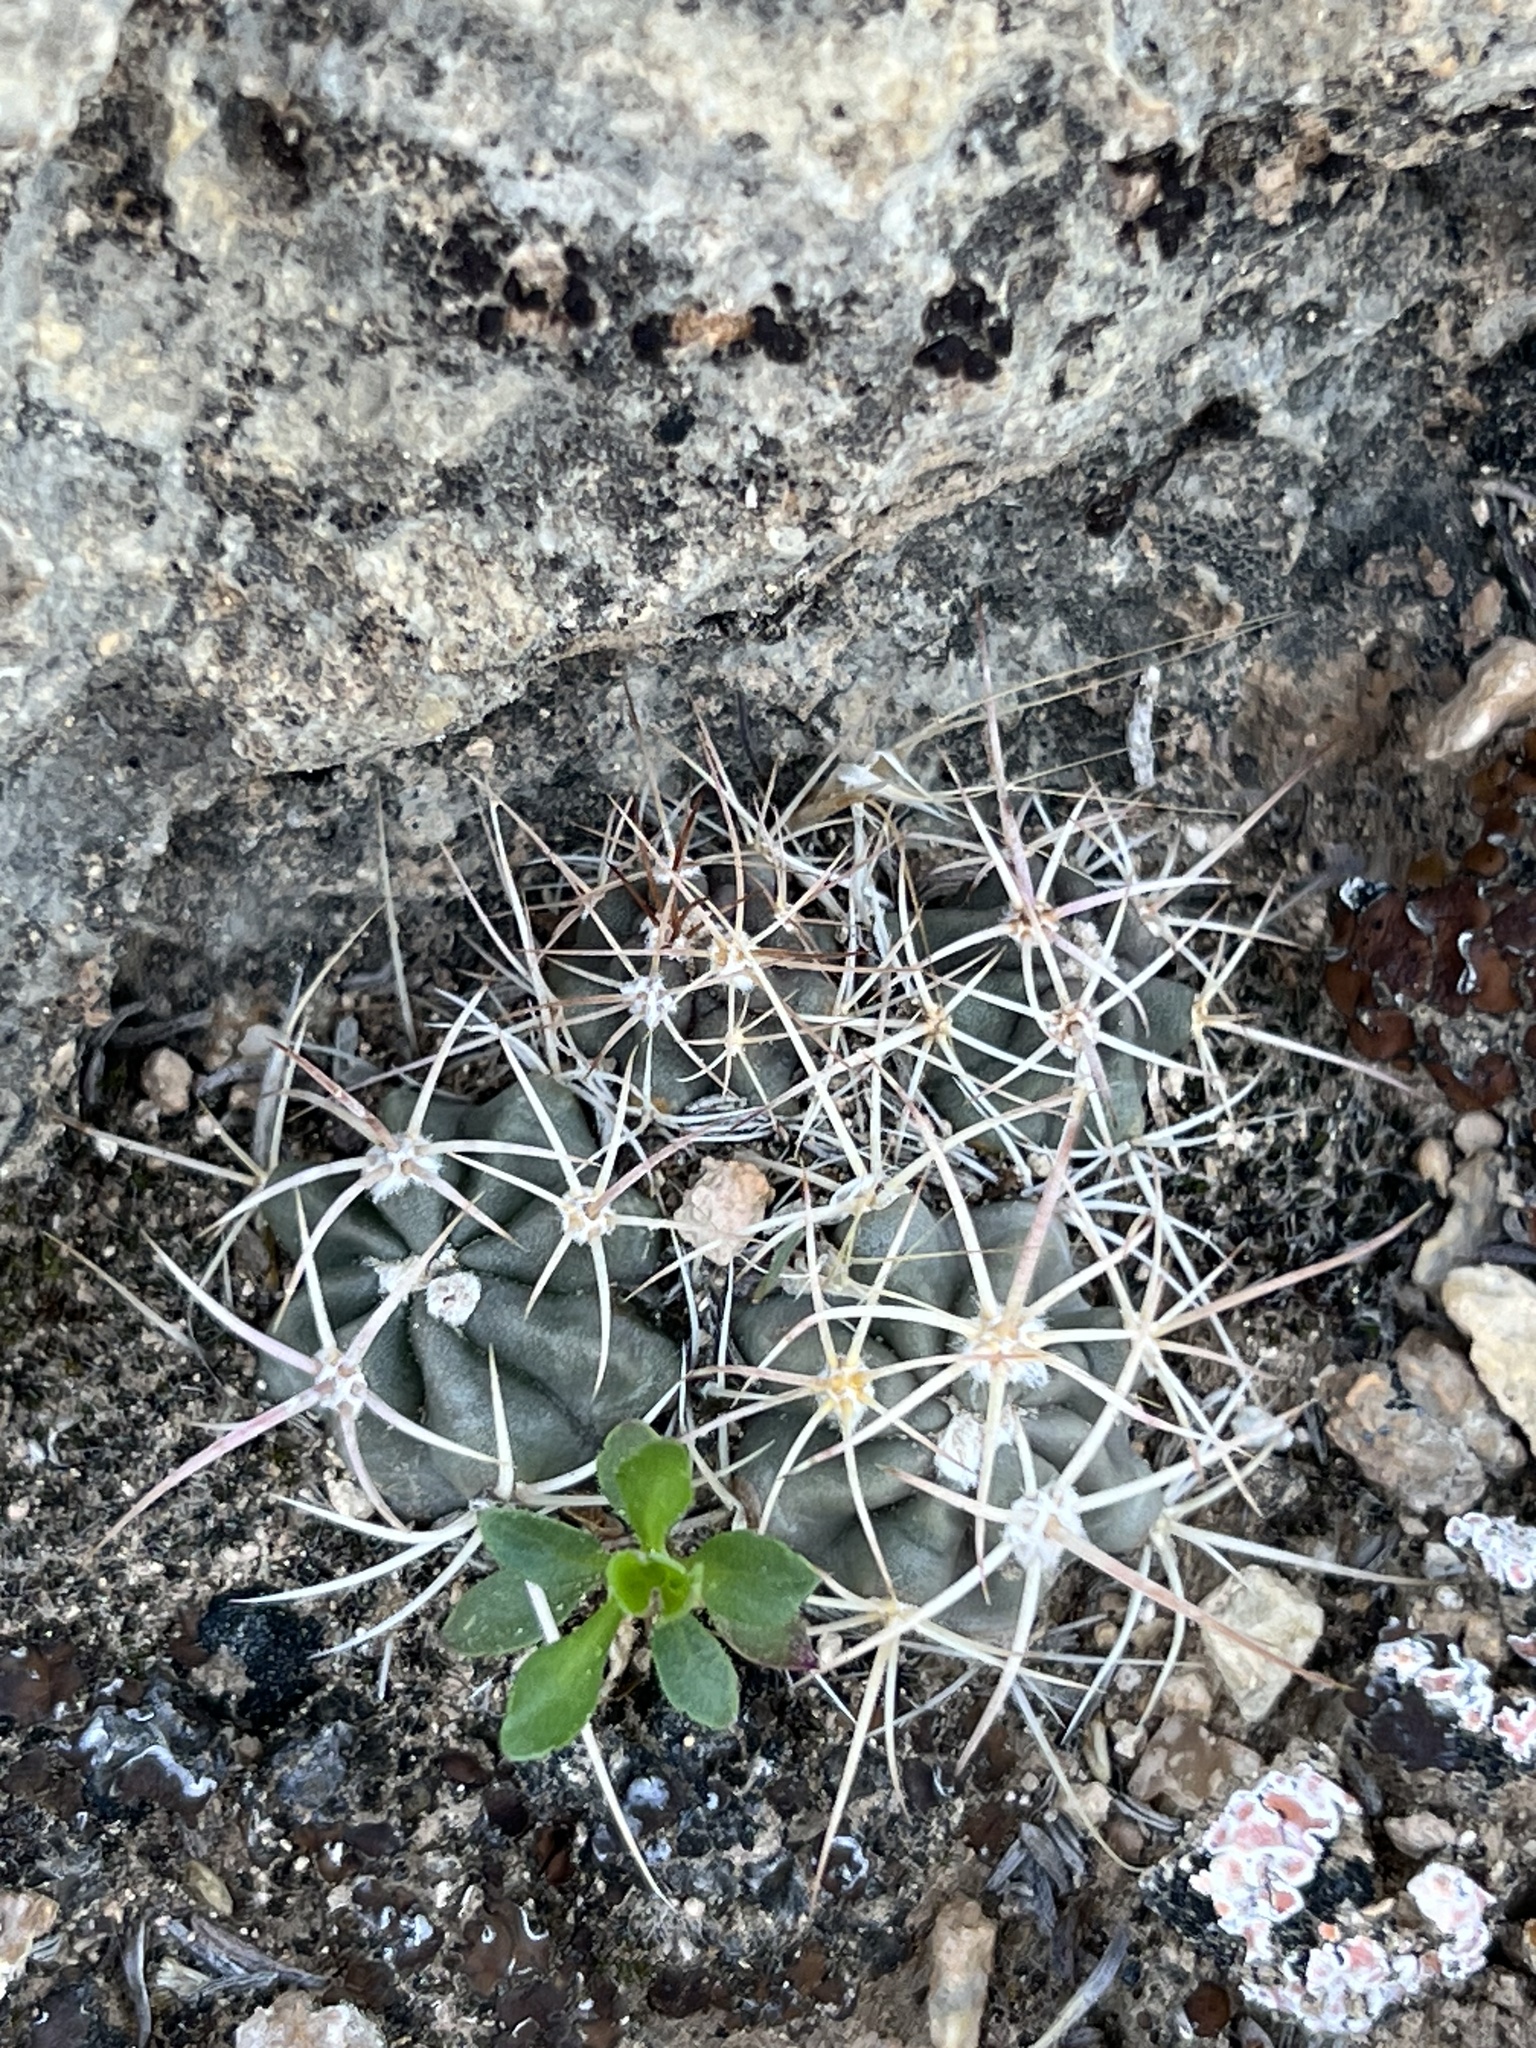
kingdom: Plantae
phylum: Tracheophyta
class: Magnoliopsida
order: Caryophyllales
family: Cactaceae
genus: Echinocactus
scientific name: Echinocactus polycephalus
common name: Cottontop cactus
